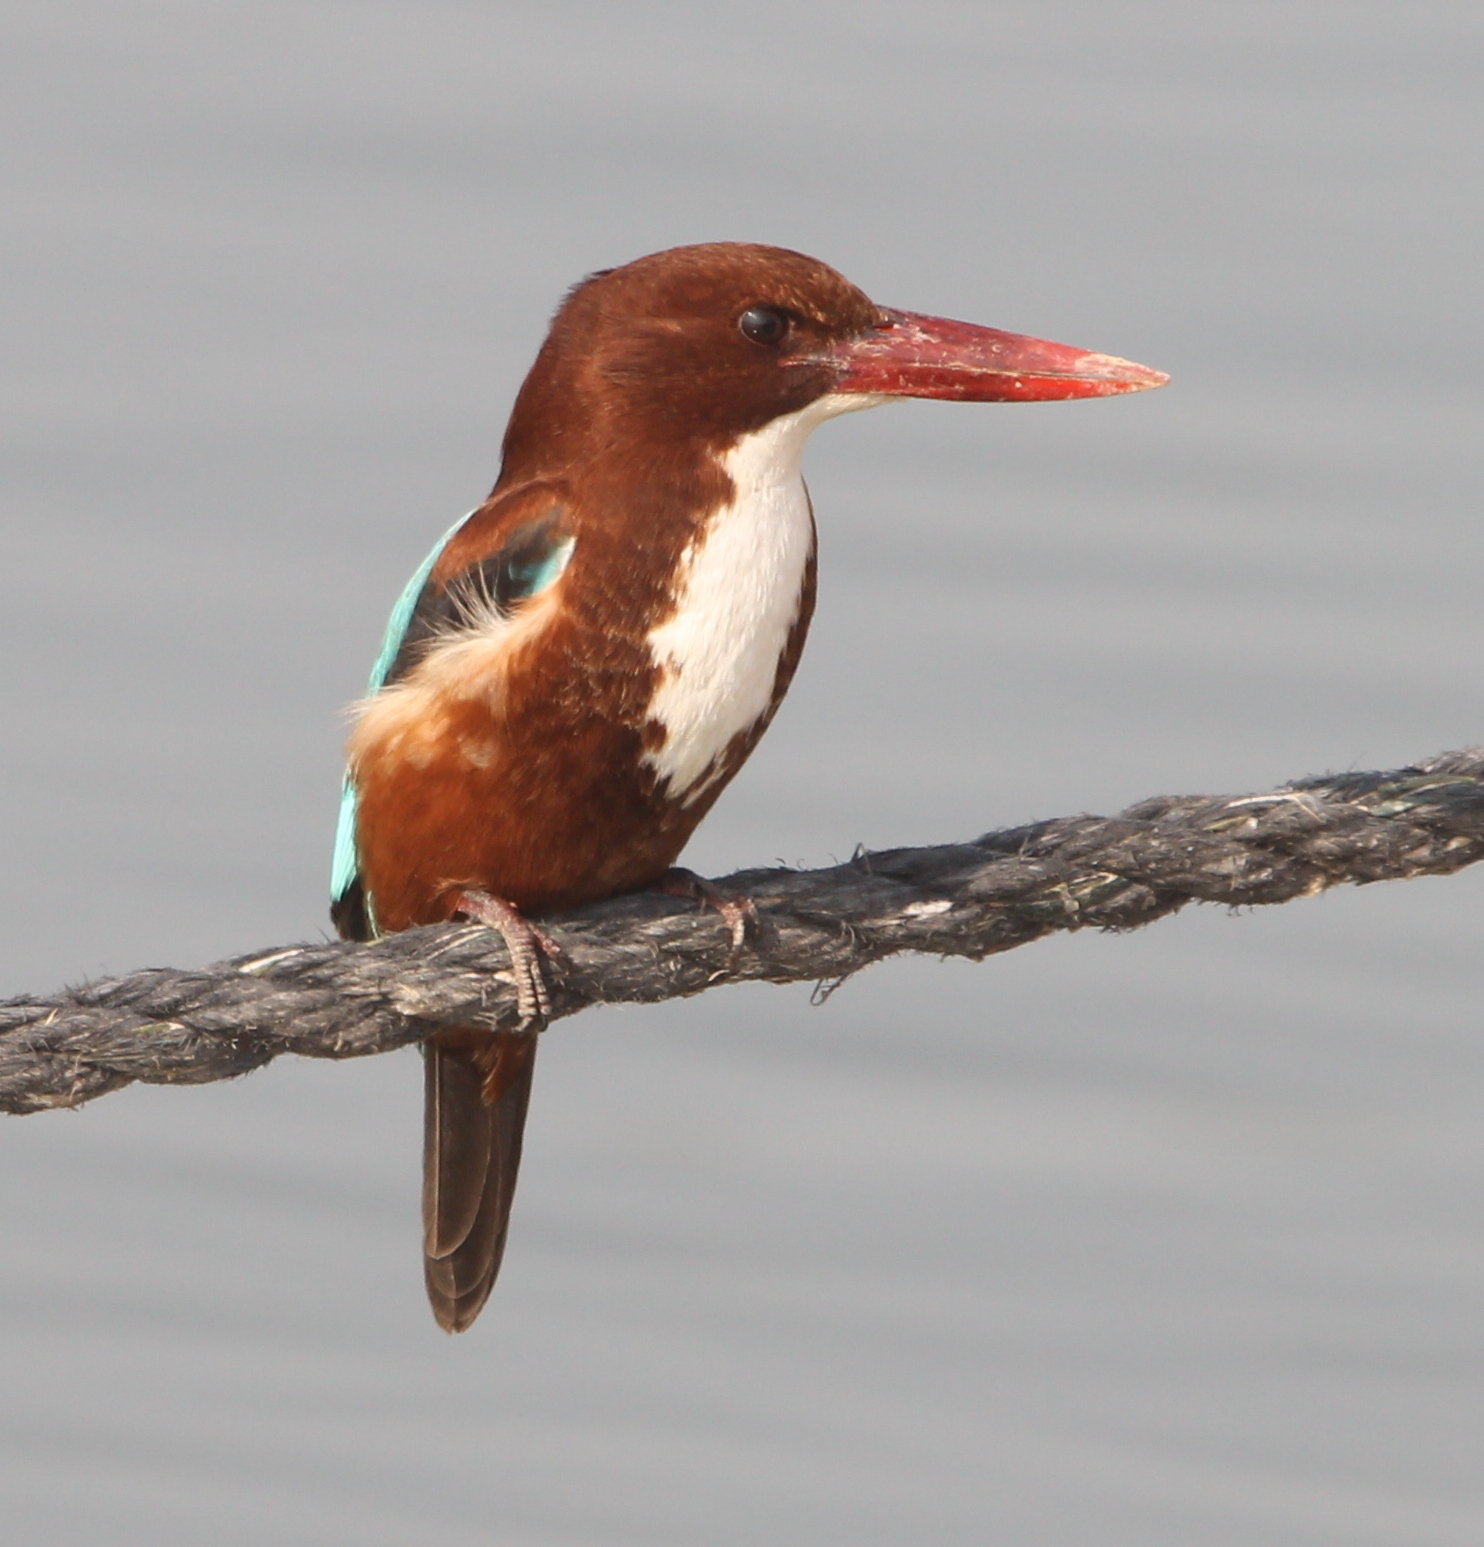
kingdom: Animalia
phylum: Chordata
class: Aves
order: Coraciiformes
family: Alcedinidae
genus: Halcyon
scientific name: Halcyon smyrnensis
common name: White-throated kingfisher
